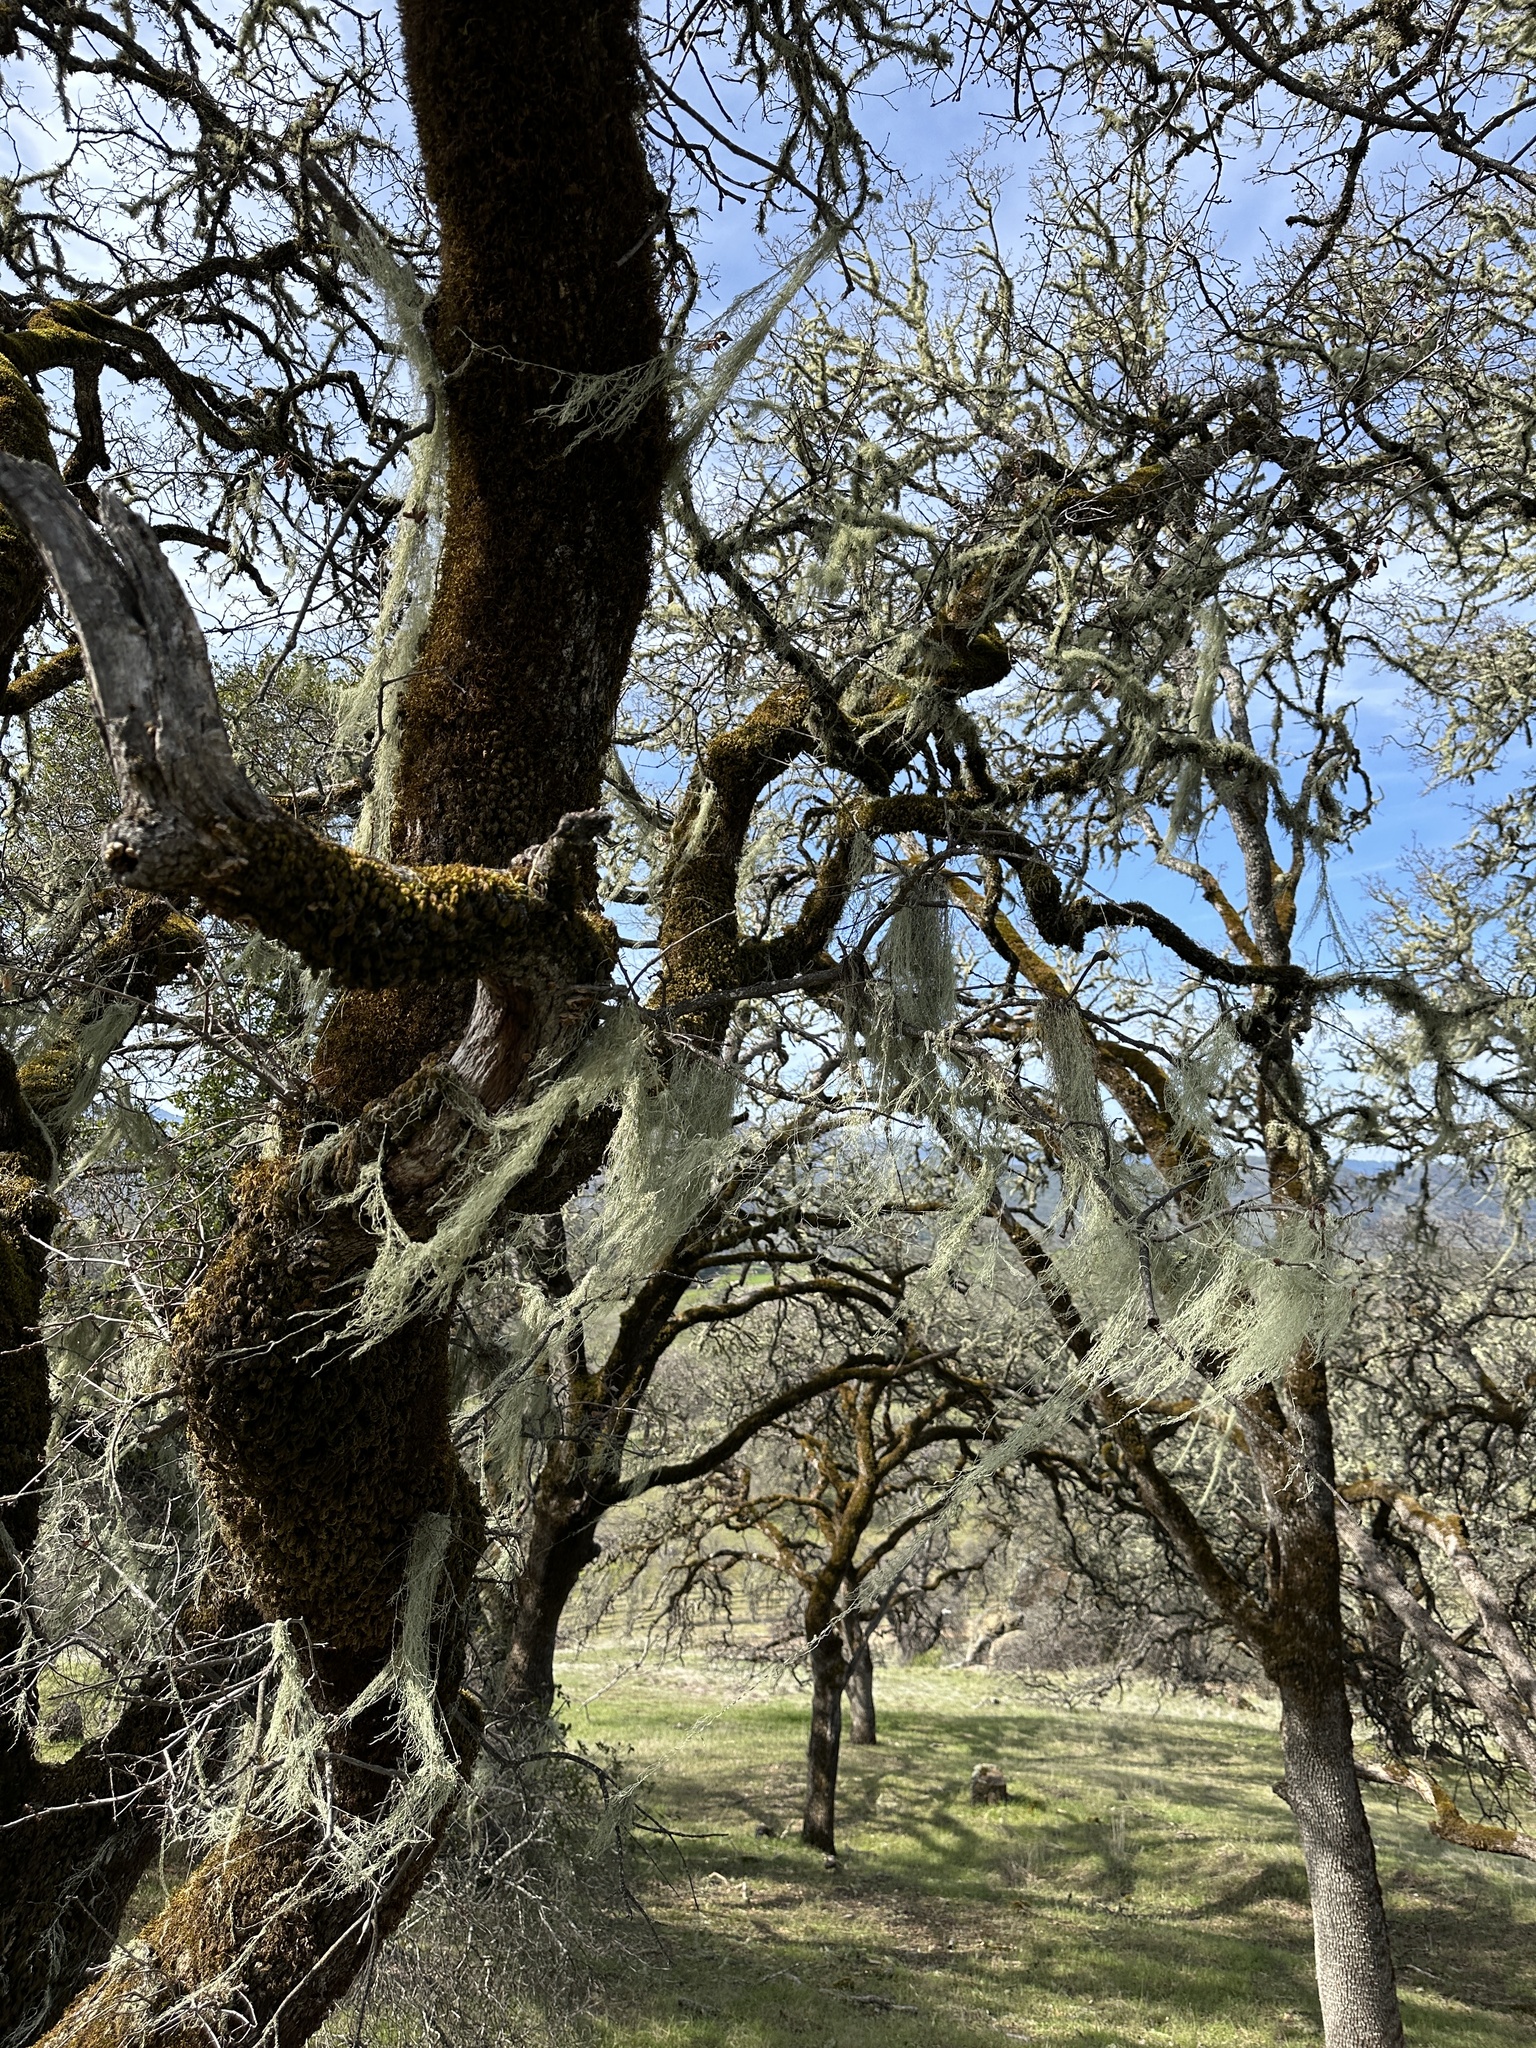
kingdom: Fungi
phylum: Ascomycota
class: Lecanoromycetes
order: Lecanorales
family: Ramalinaceae
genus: Ramalina
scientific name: Ramalina menziesii
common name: Lace lichen
